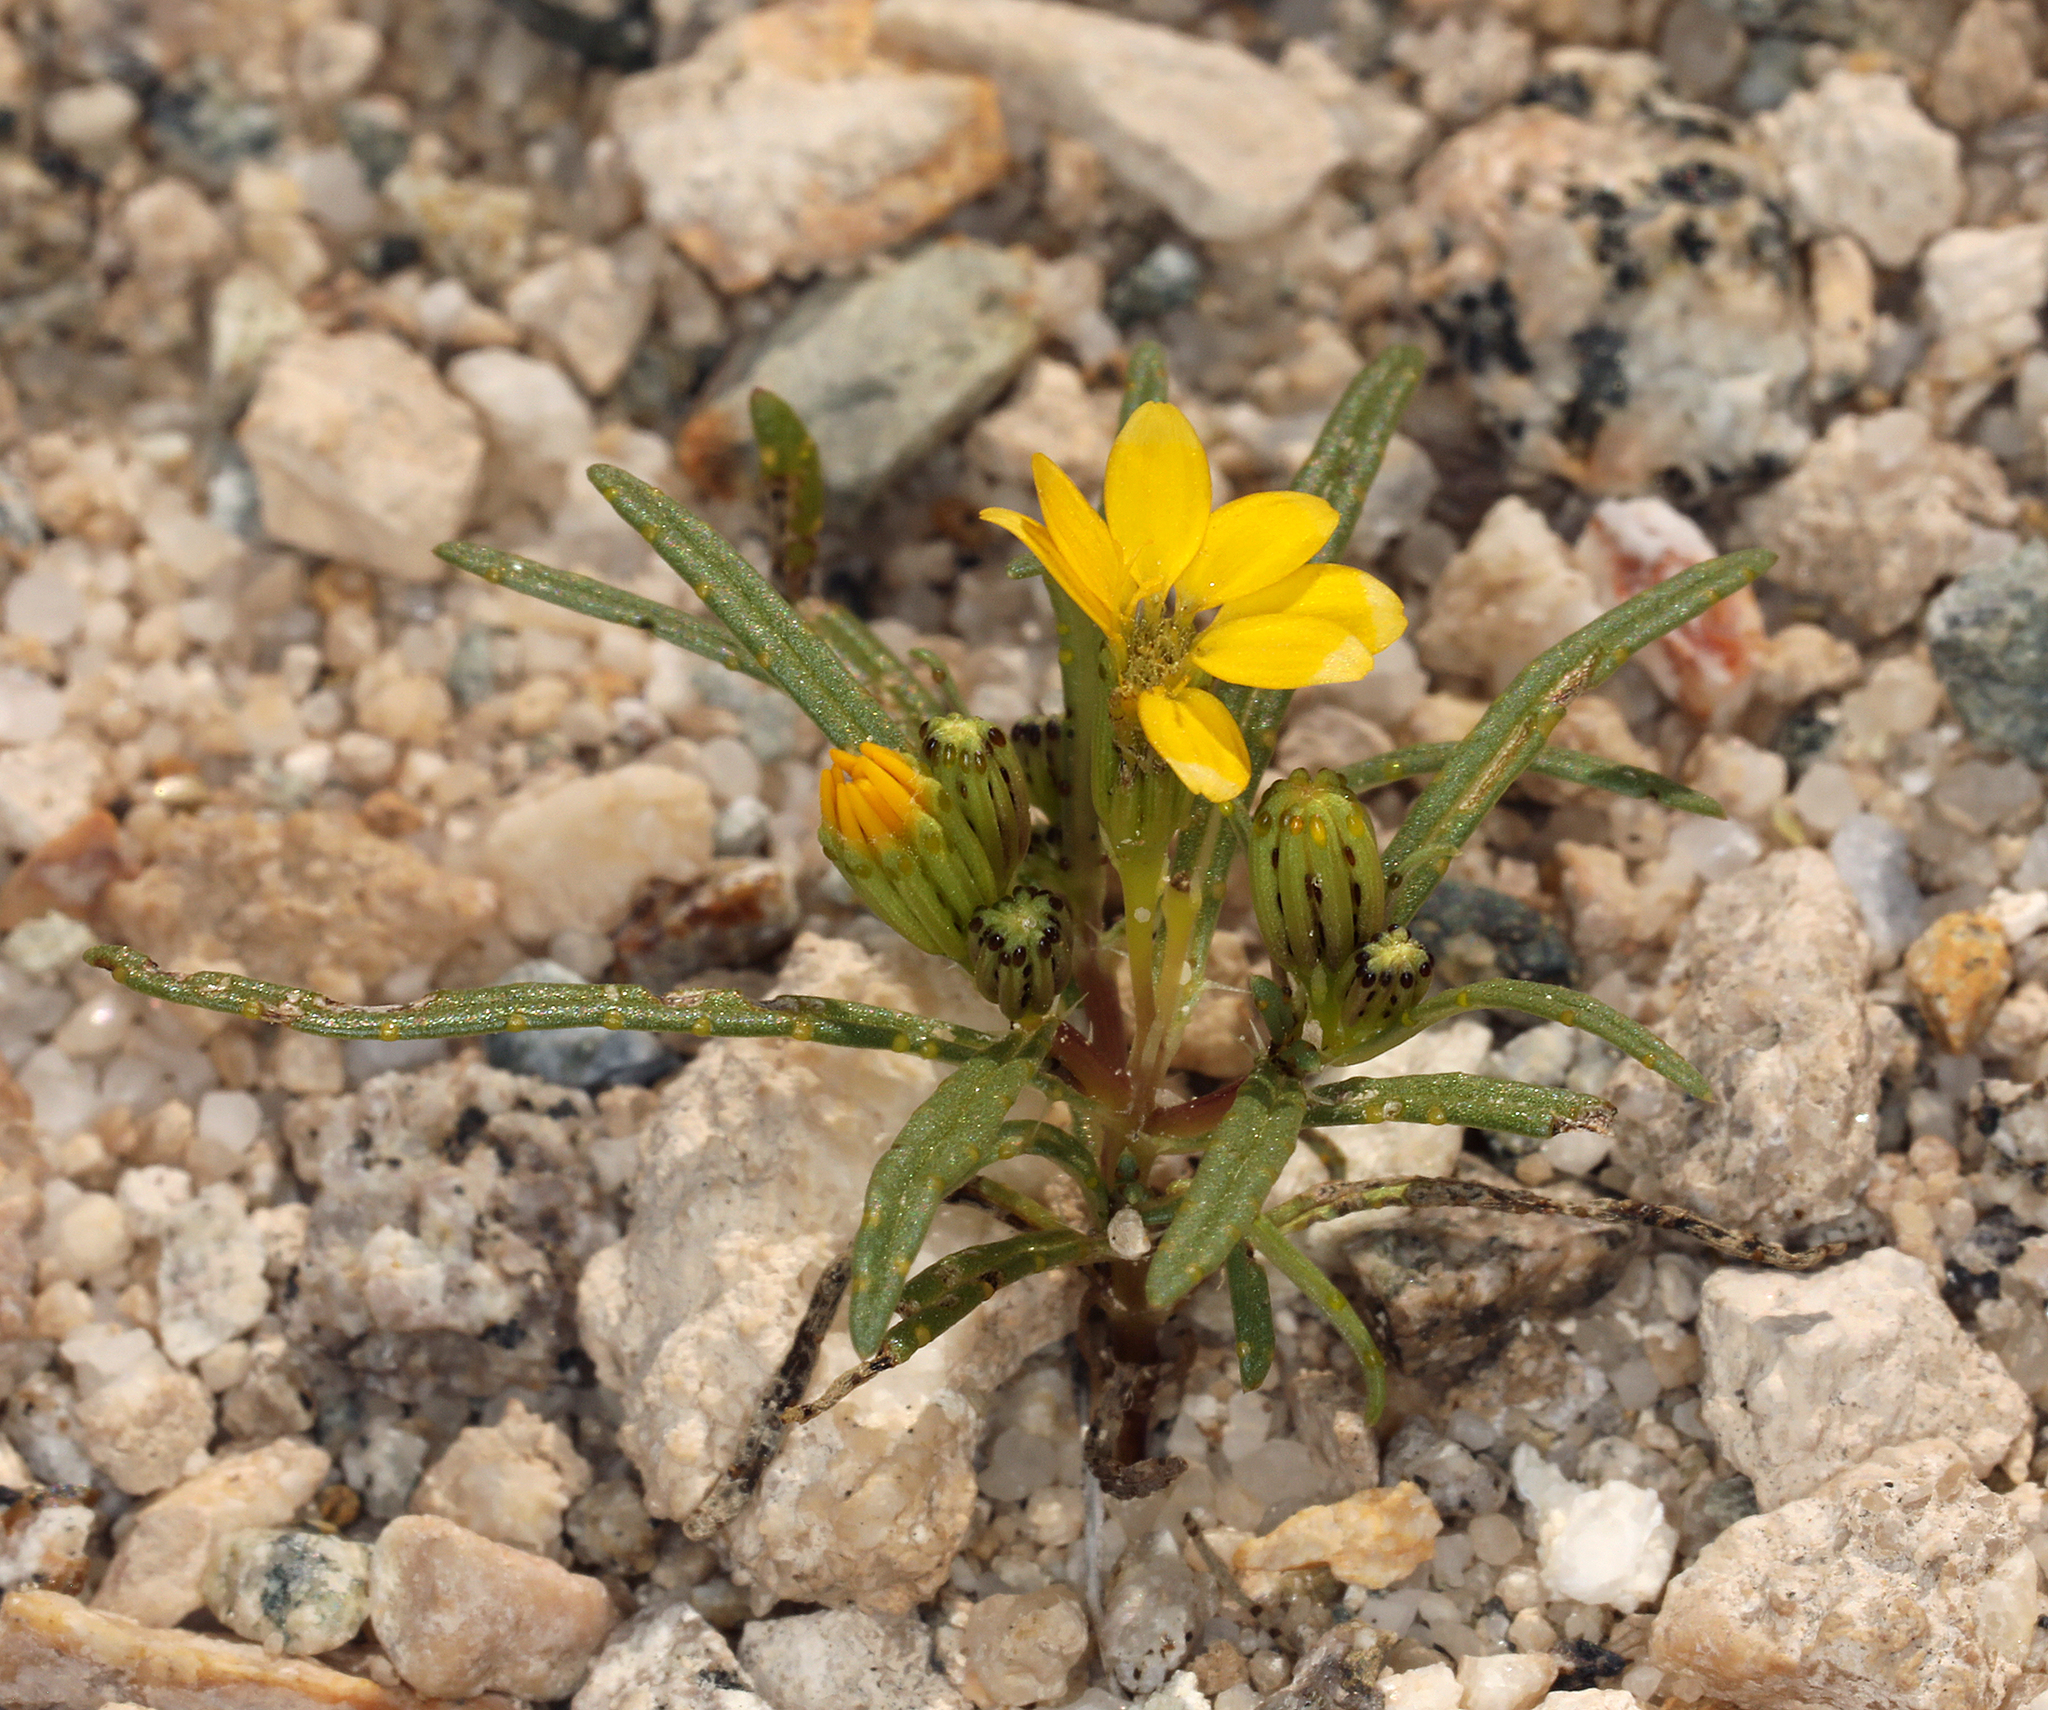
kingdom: Plantae
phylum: Tracheophyta
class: Magnoliopsida
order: Asterales
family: Asteraceae
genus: Pectis
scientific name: Pectis papposa
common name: Many-bristle chinchweed
